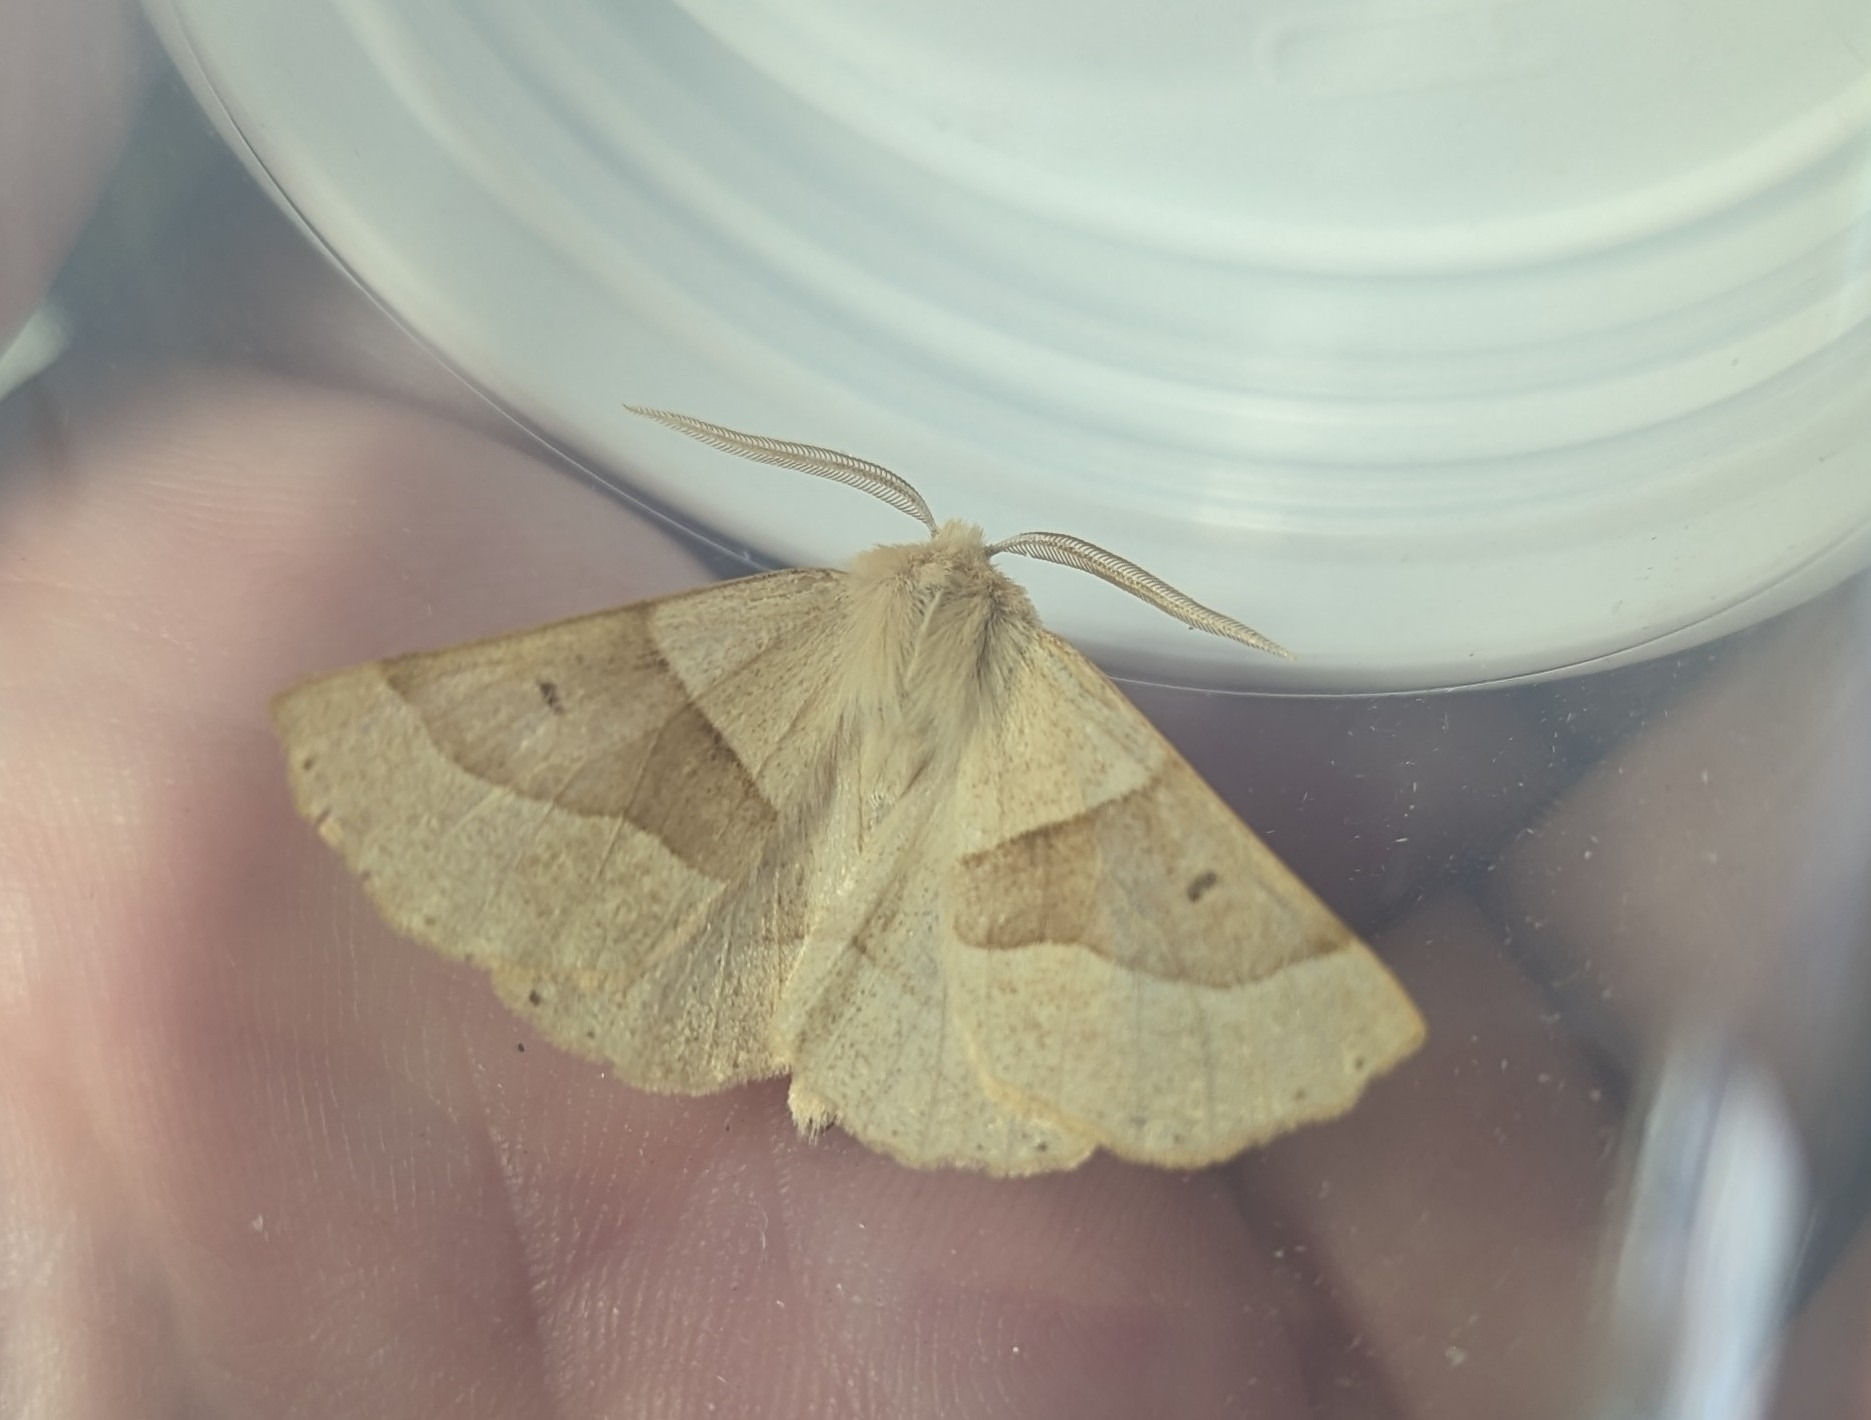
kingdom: Animalia
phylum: Arthropoda
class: Insecta
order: Lepidoptera
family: Geometridae
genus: Crocallis
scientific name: Crocallis elinguaria
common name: Scalloped oak
